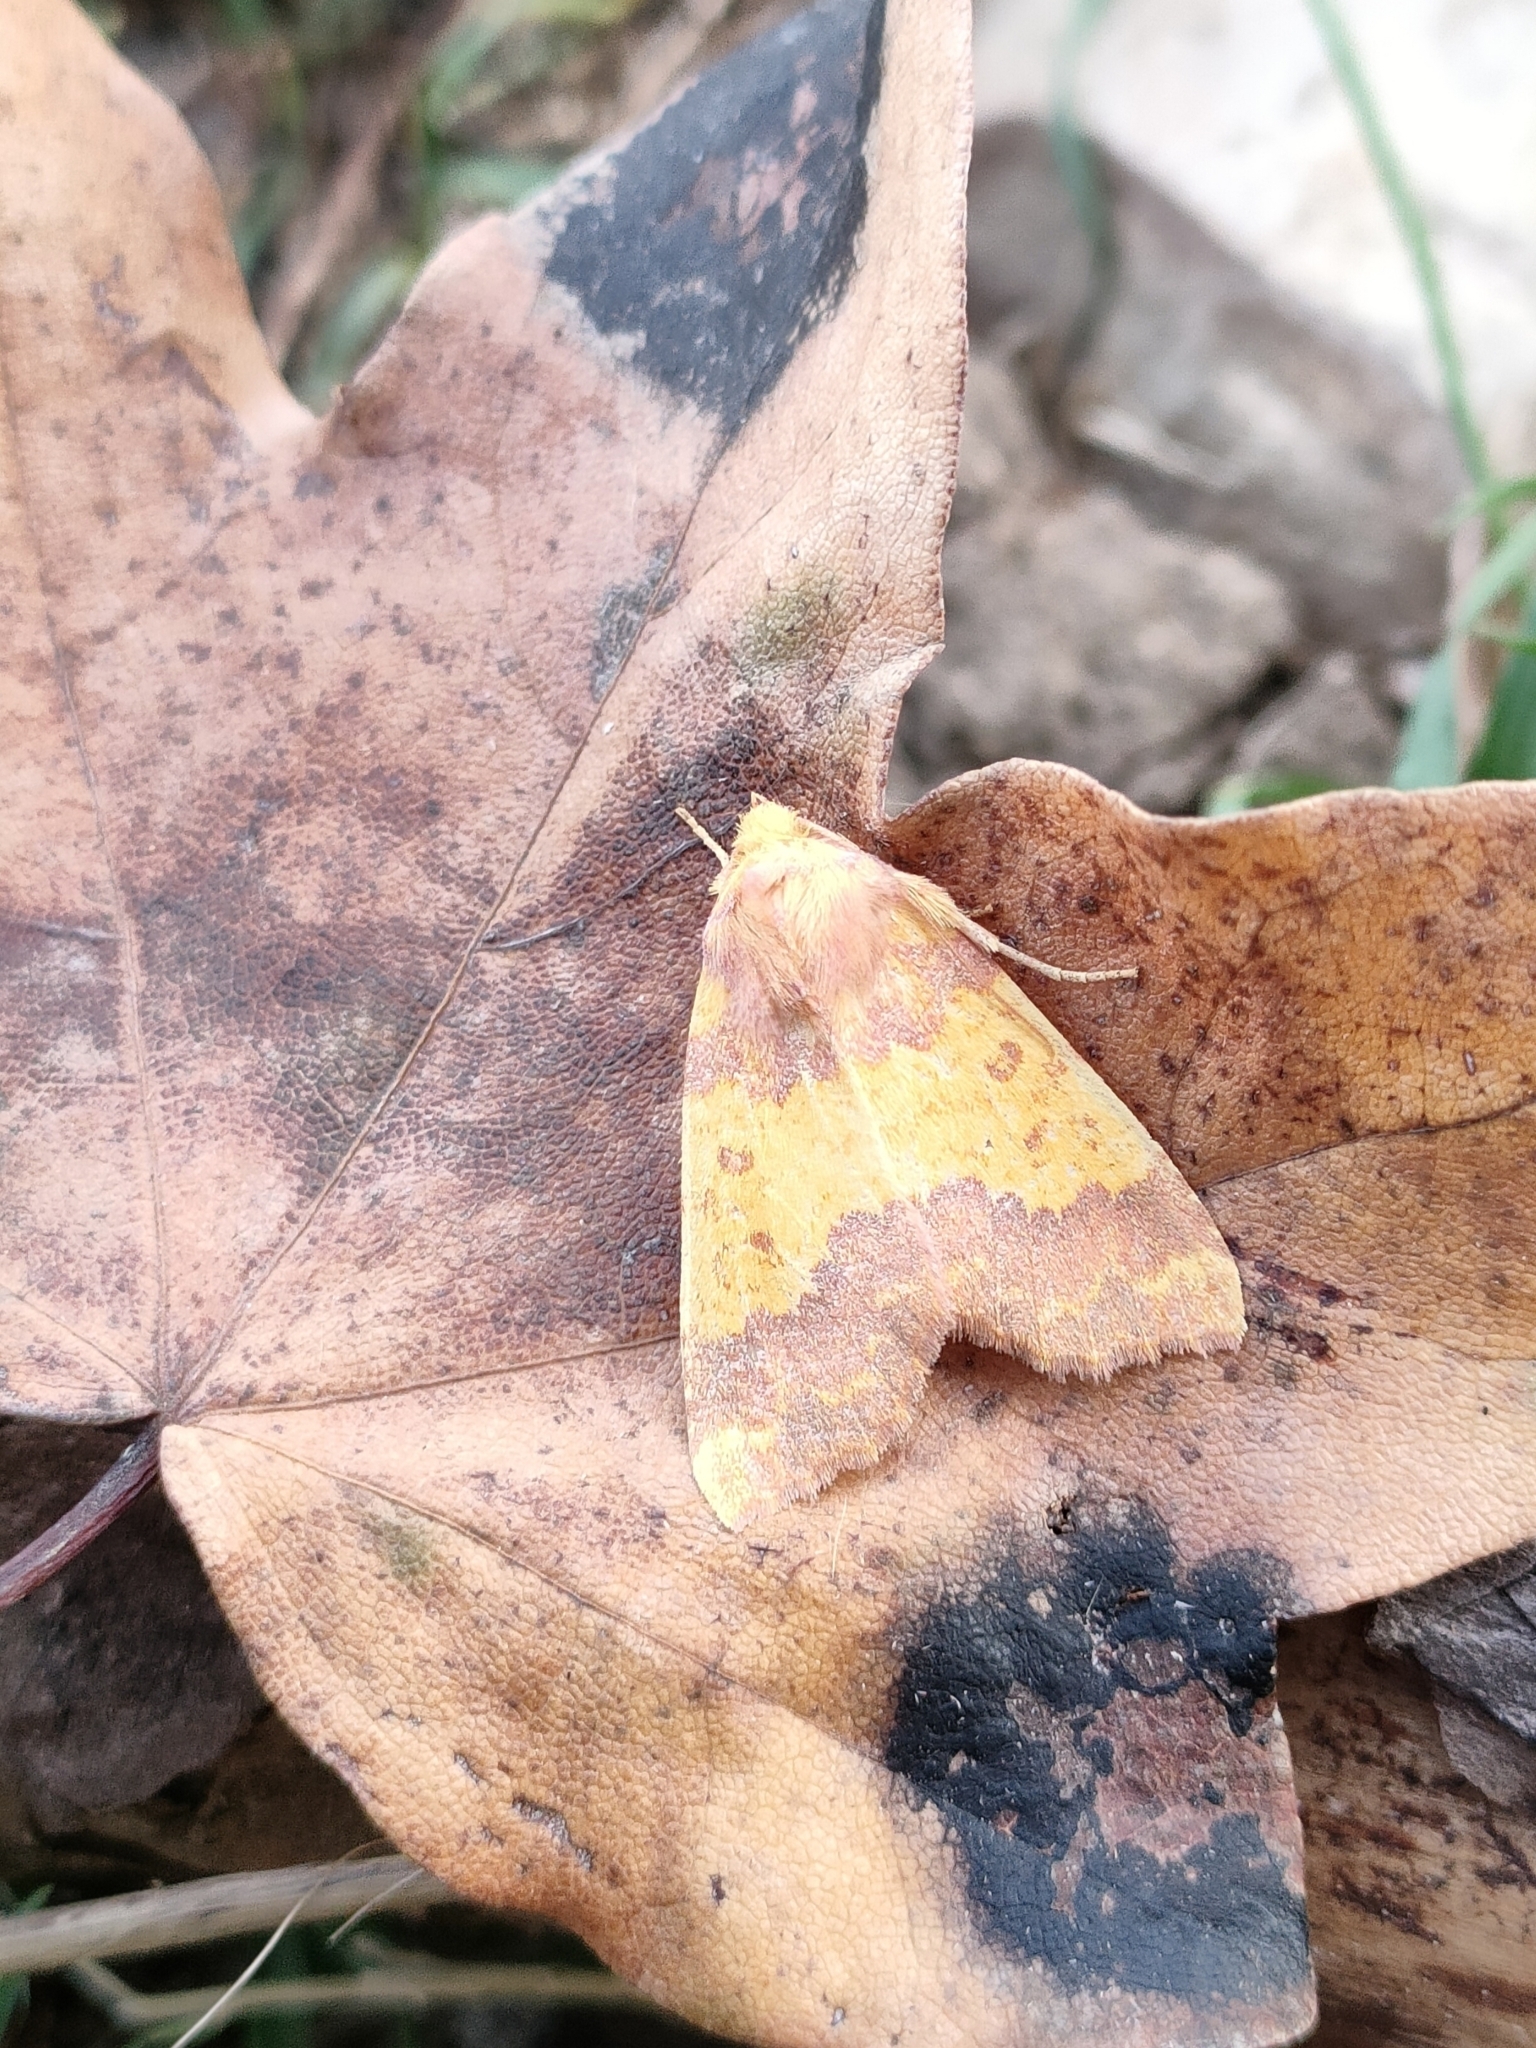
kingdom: Animalia
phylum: Arthropoda
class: Insecta
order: Lepidoptera
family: Noctuidae
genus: Tiliacea
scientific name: Tiliacea aurago
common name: Barred sallow
